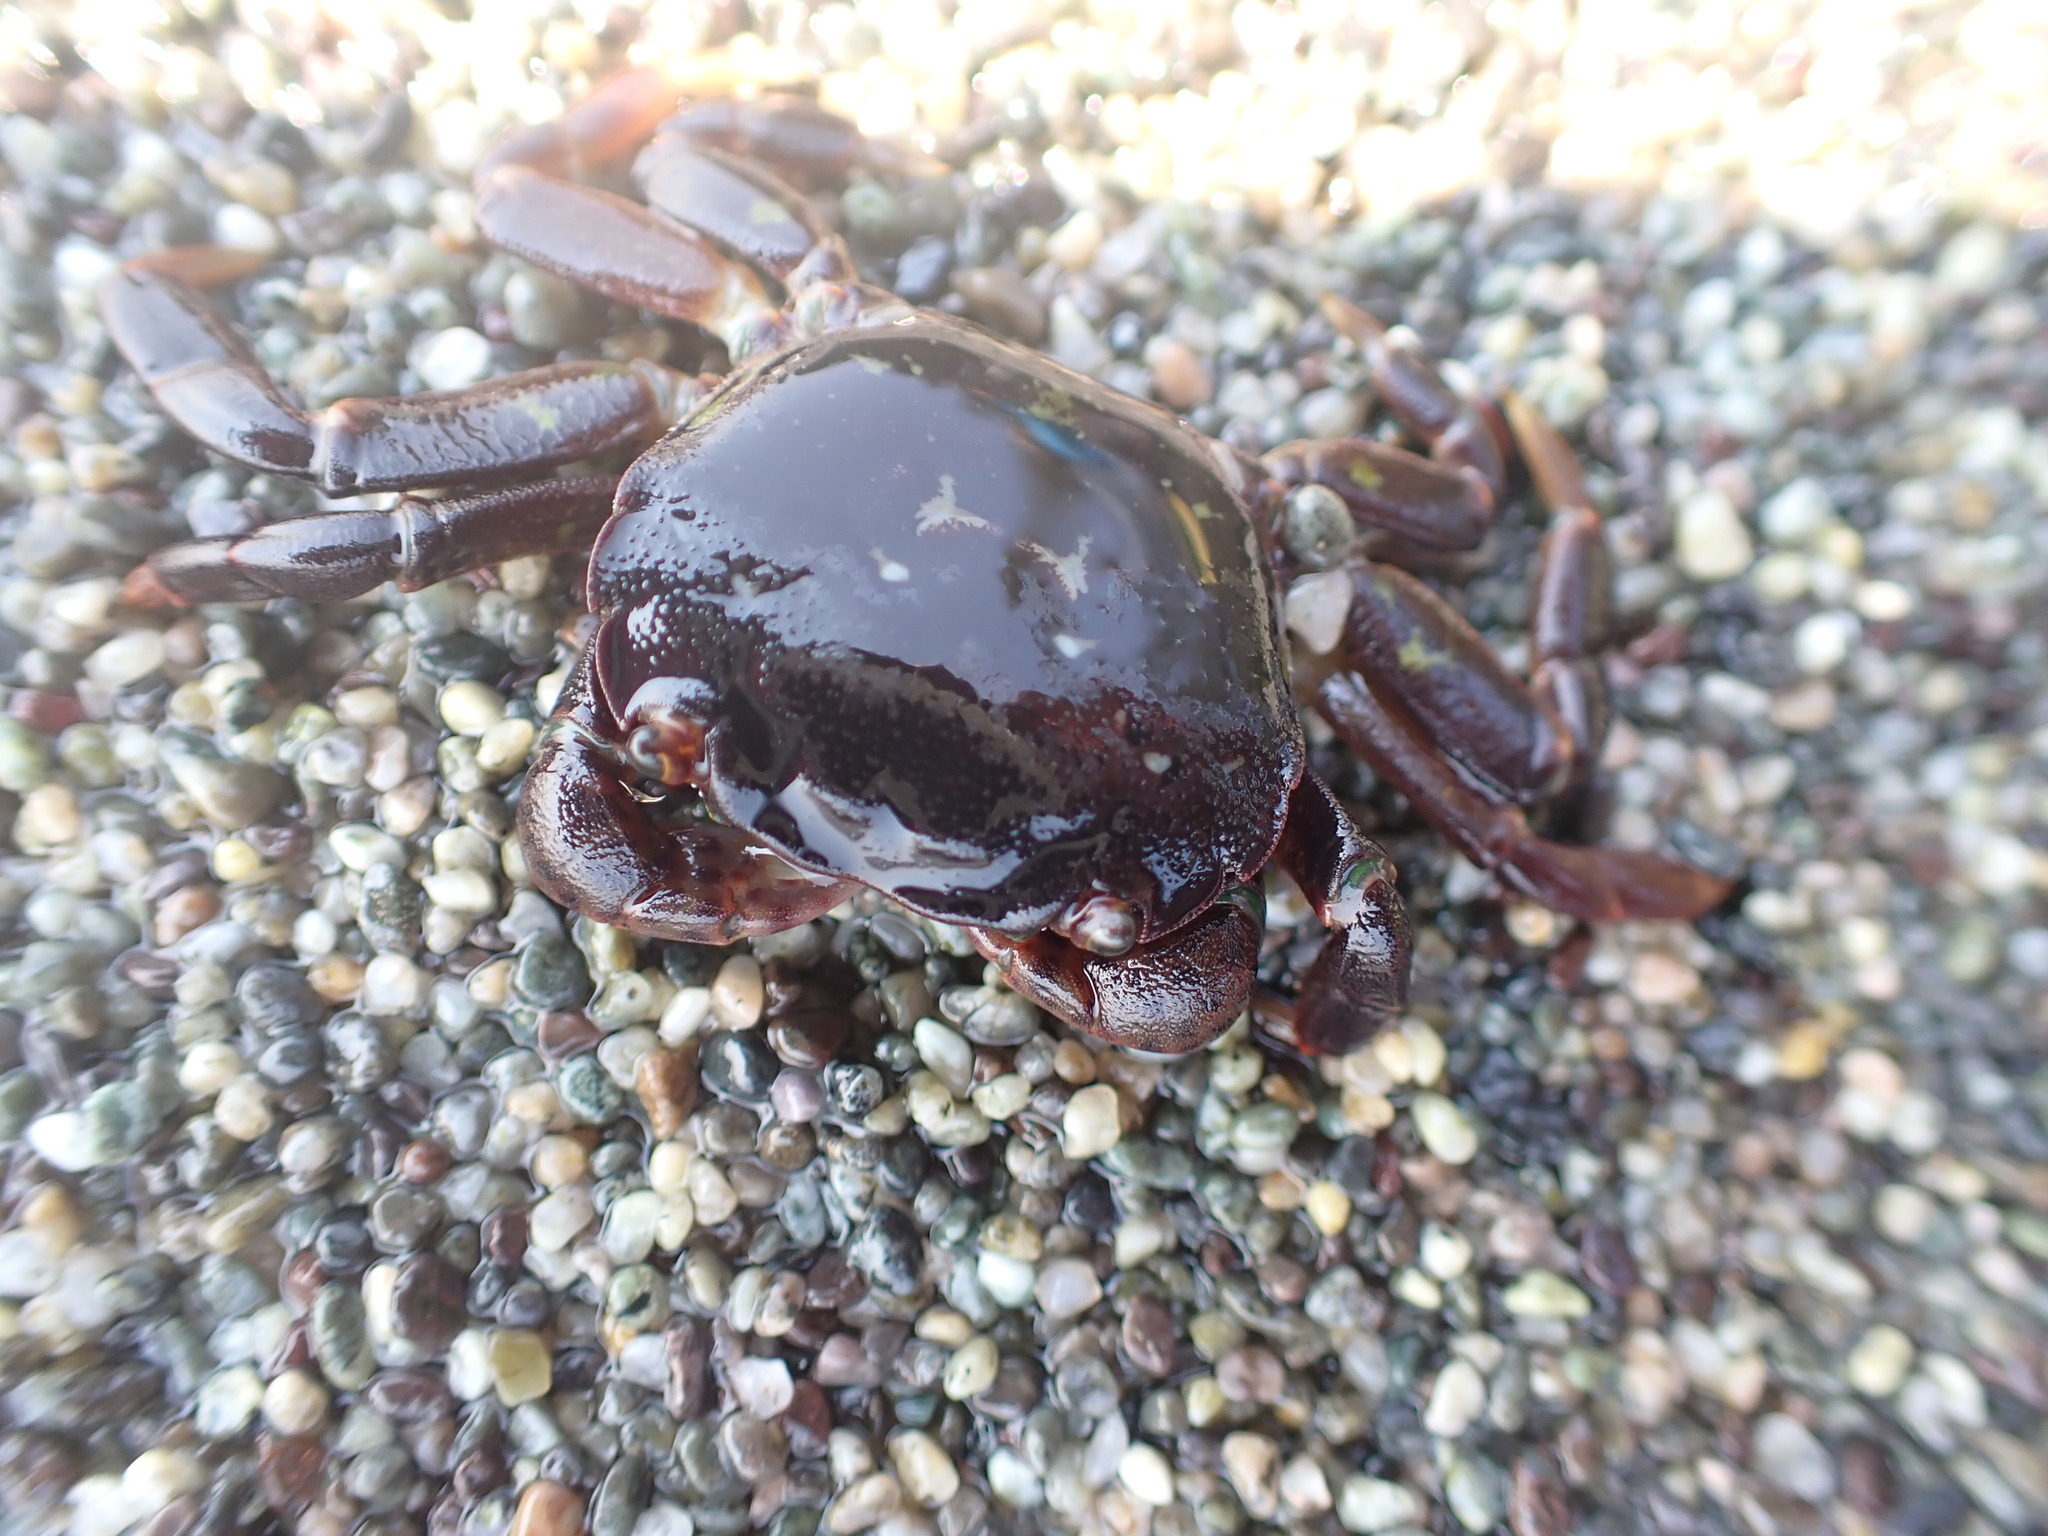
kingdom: Animalia
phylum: Arthropoda
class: Malacostraca
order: Decapoda
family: Varunidae
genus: Hemigrapsus
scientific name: Hemigrapsus nudus
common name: Purple shore crab
